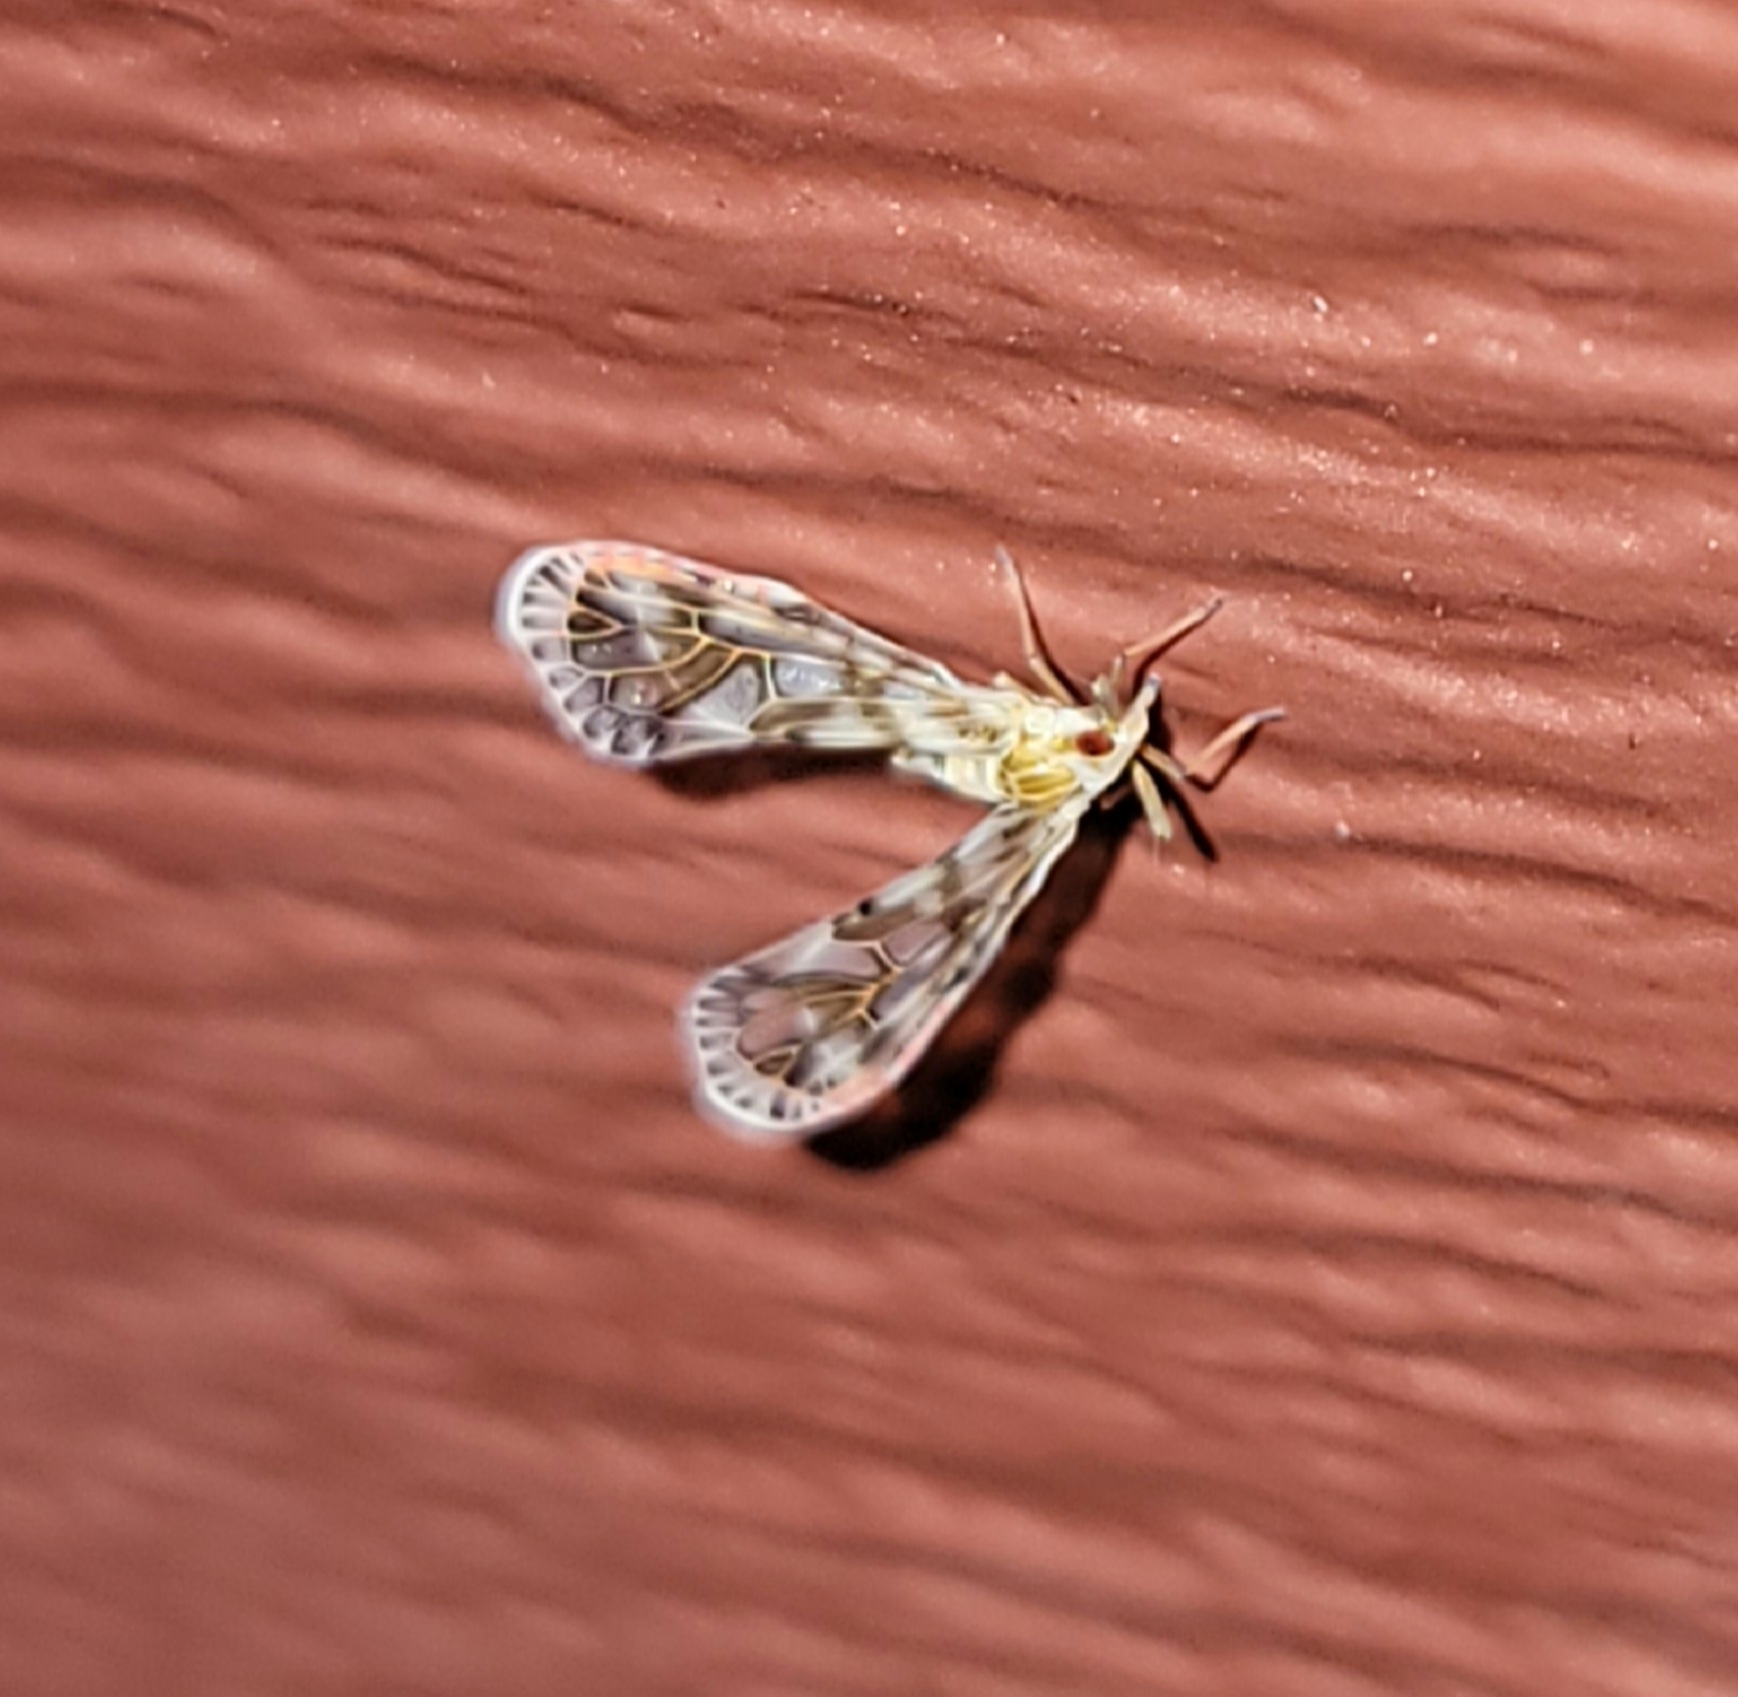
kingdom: Animalia
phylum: Arthropoda
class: Insecta
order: Hemiptera
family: Derbidae
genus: Anotia
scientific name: Anotia kirkaldyi
